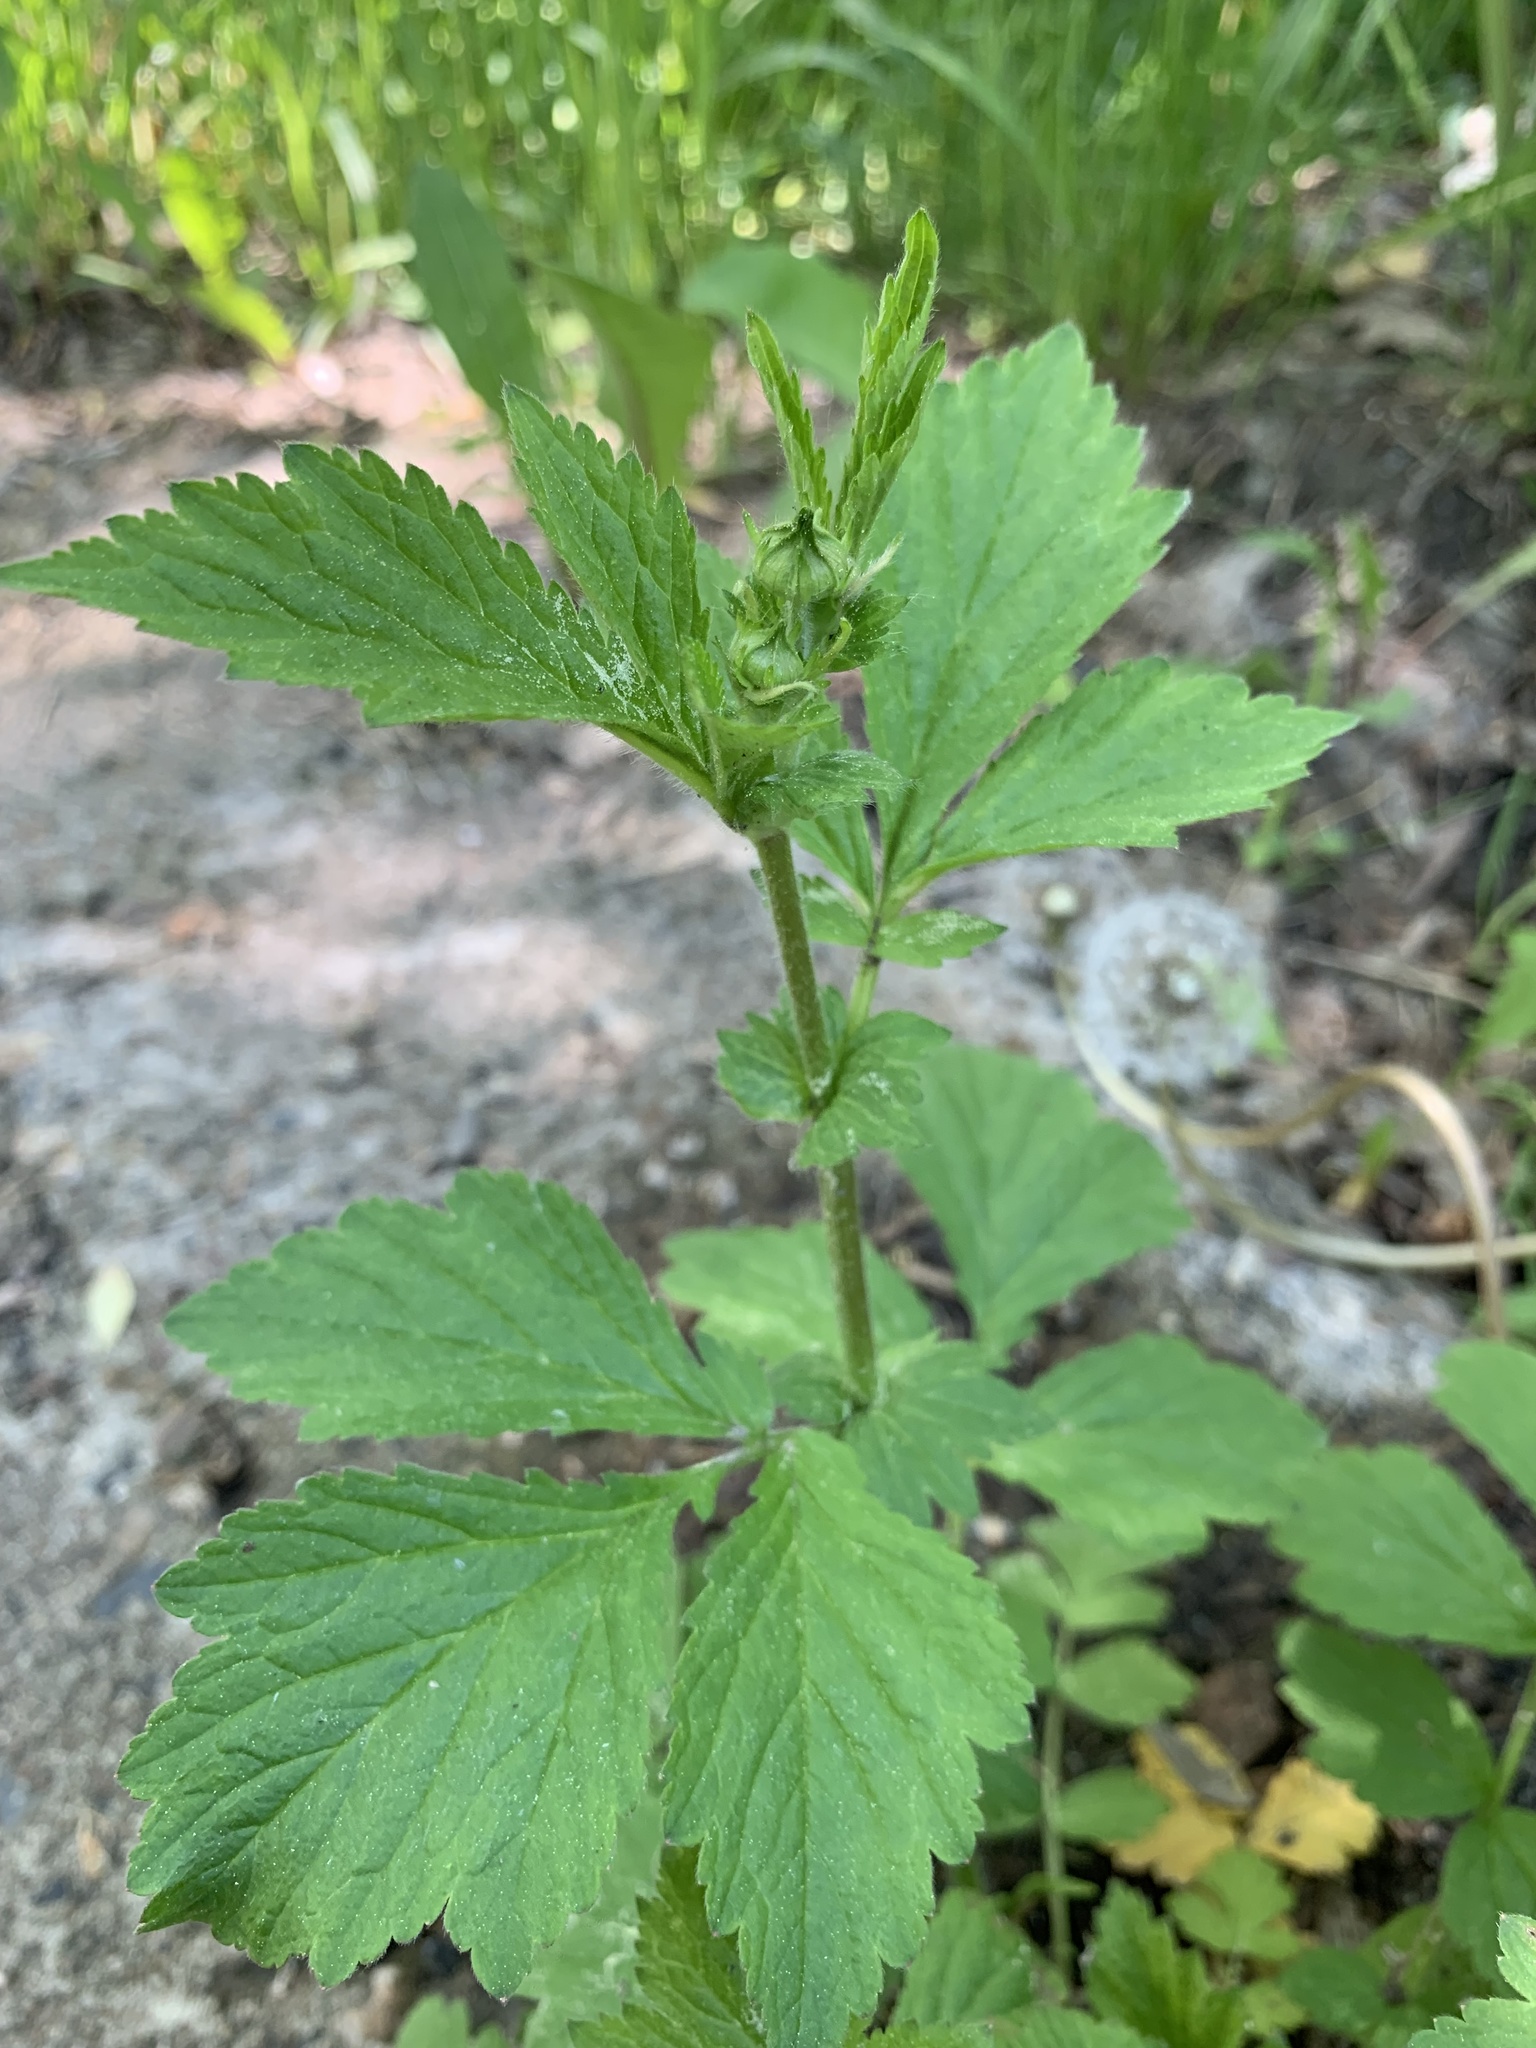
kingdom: Plantae
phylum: Tracheophyta
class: Magnoliopsida
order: Rosales
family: Rosaceae
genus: Geum
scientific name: Geum aleppicum
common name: Yellow avens
